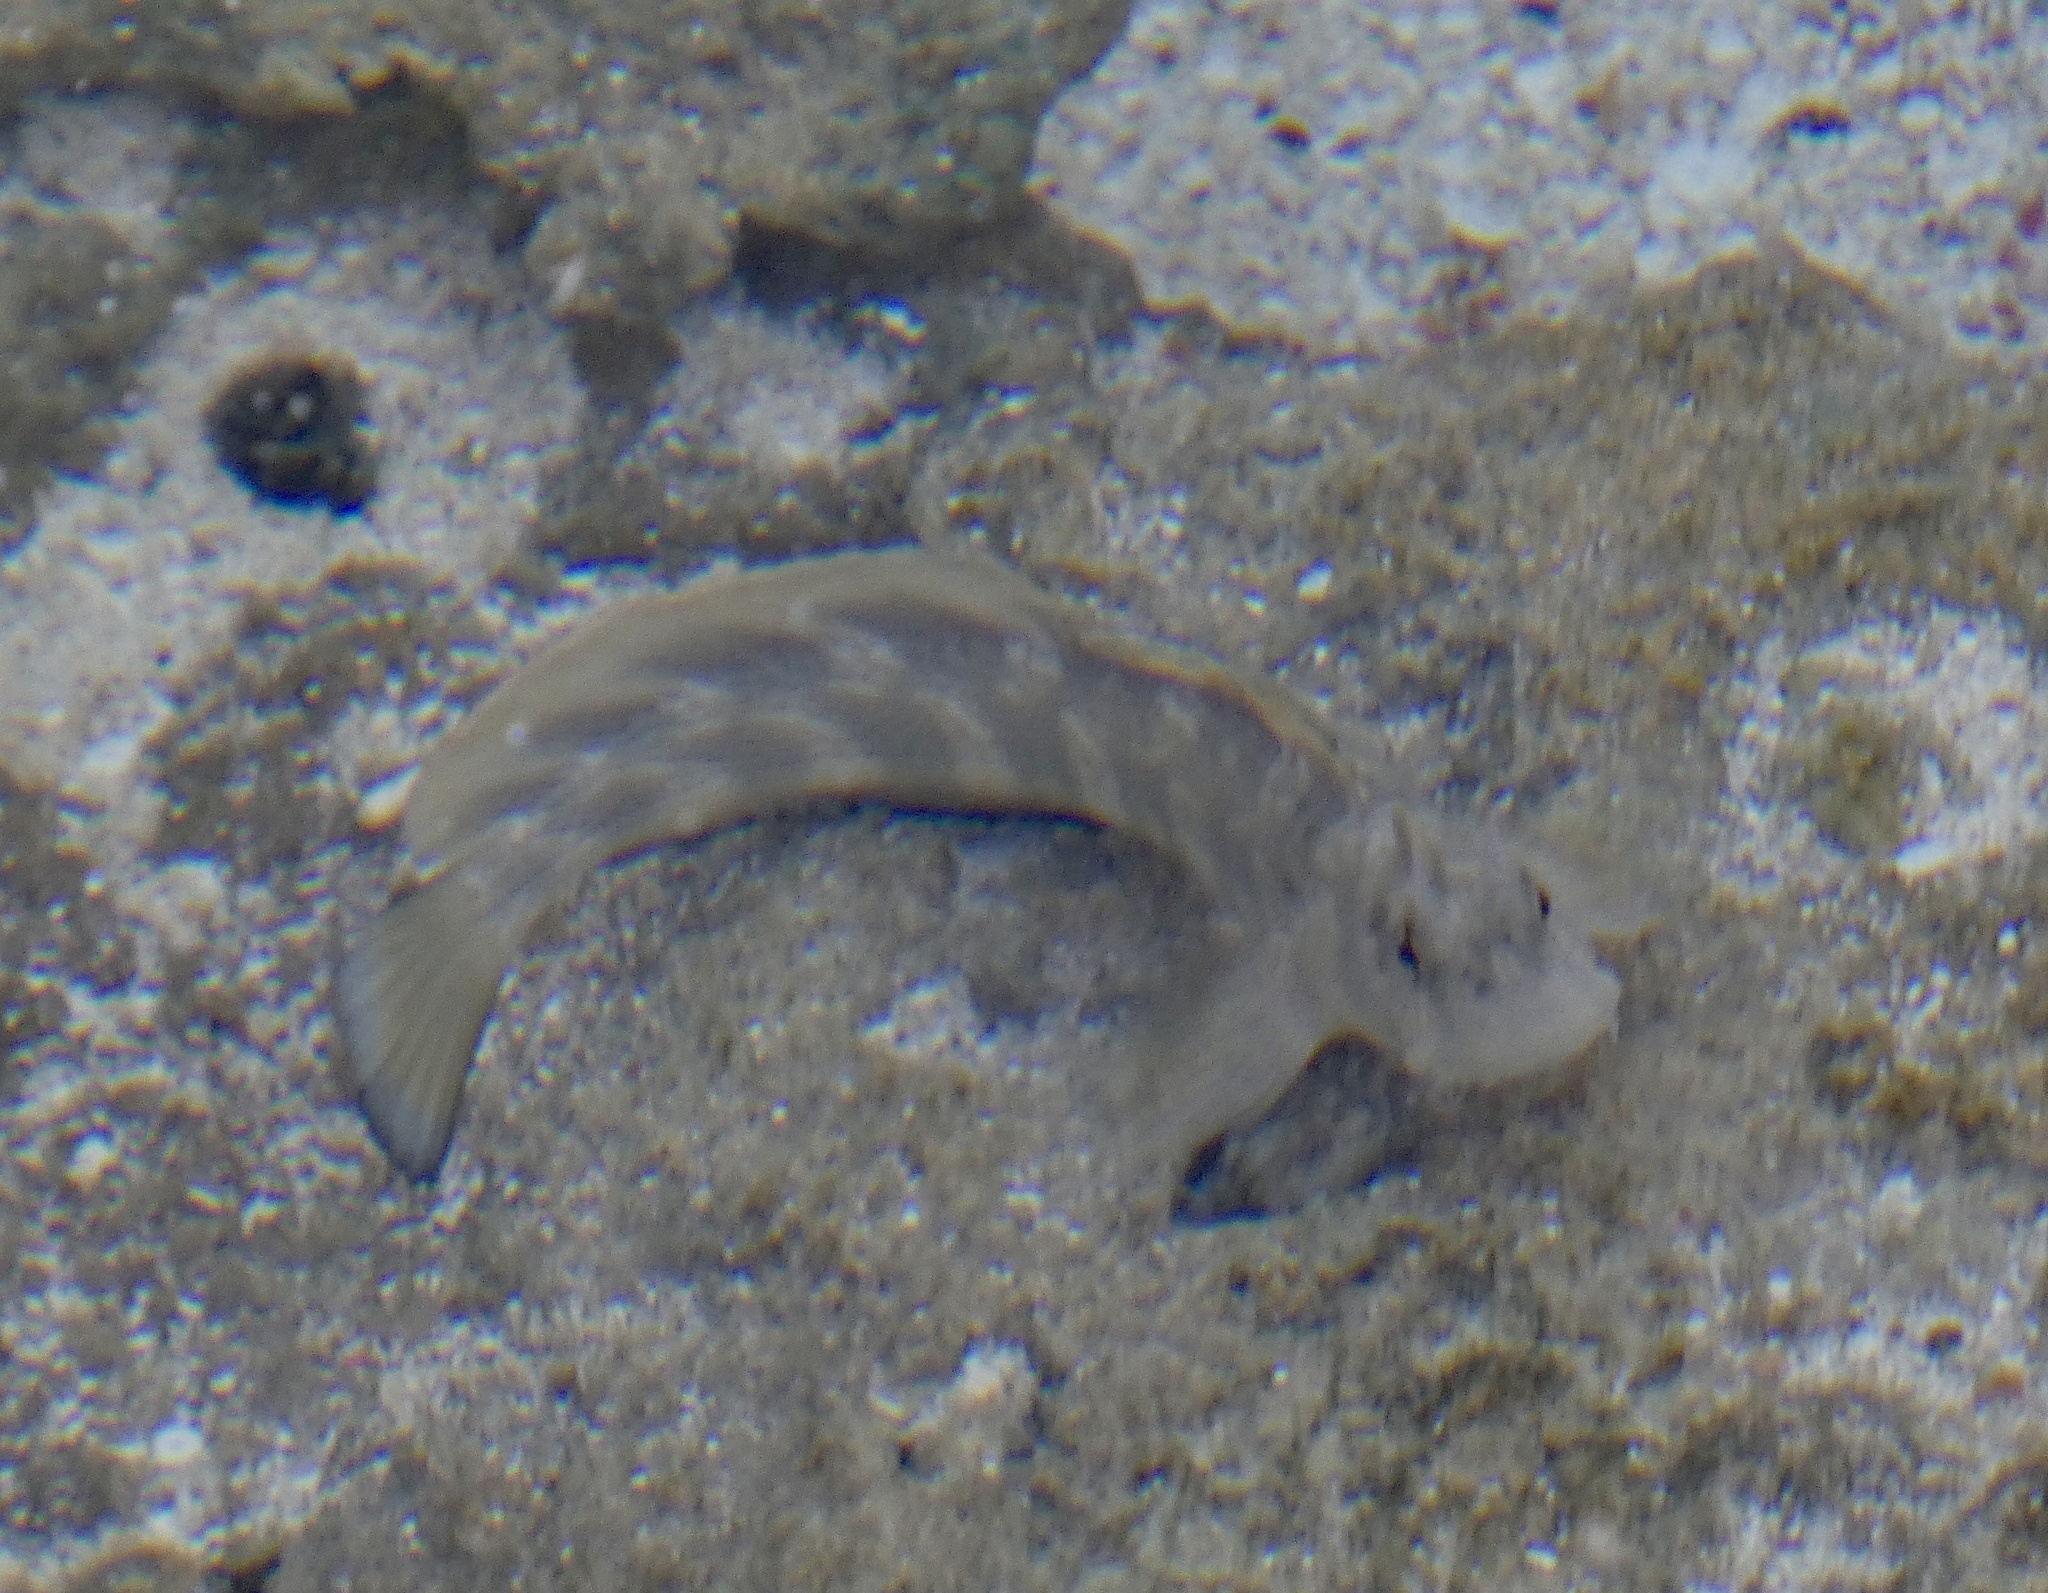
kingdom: Animalia
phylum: Chordata
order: Perciformes
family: Blenniidae
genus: Istiblennius
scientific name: Istiblennius rivulatus
